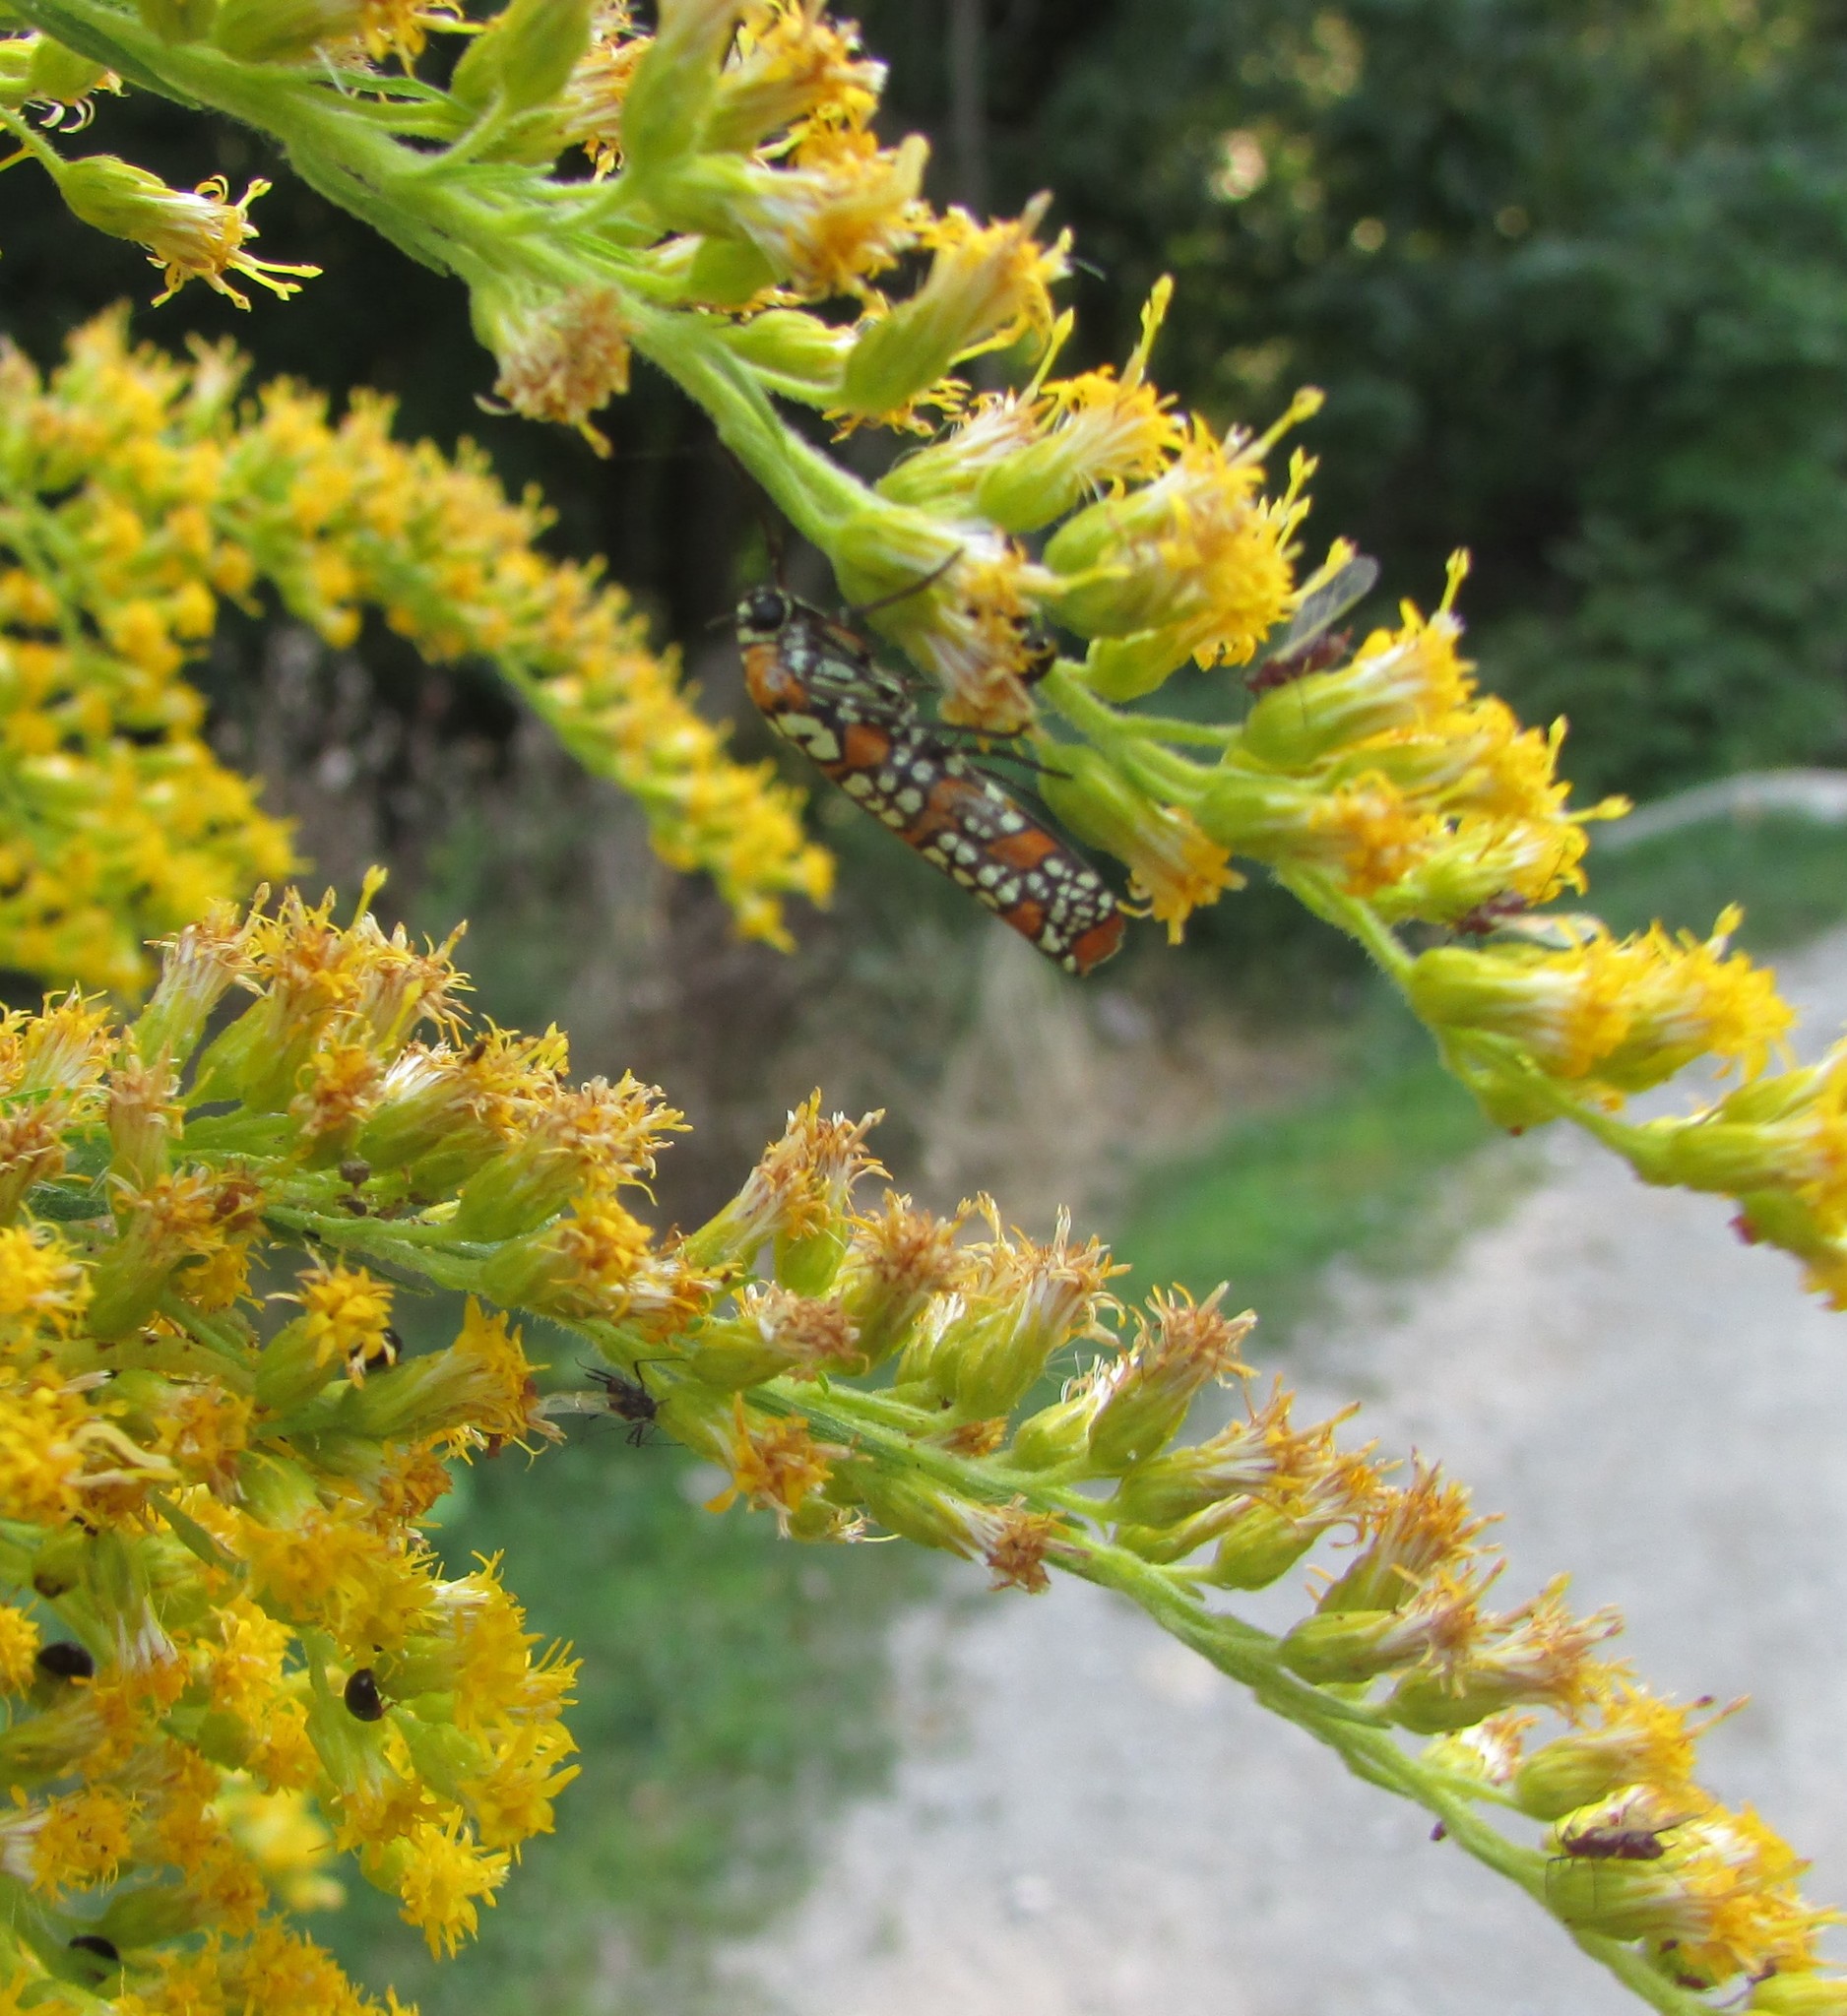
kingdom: Animalia
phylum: Arthropoda
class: Insecta
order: Lepidoptera
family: Attevidae
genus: Atteva
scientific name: Atteva punctella
